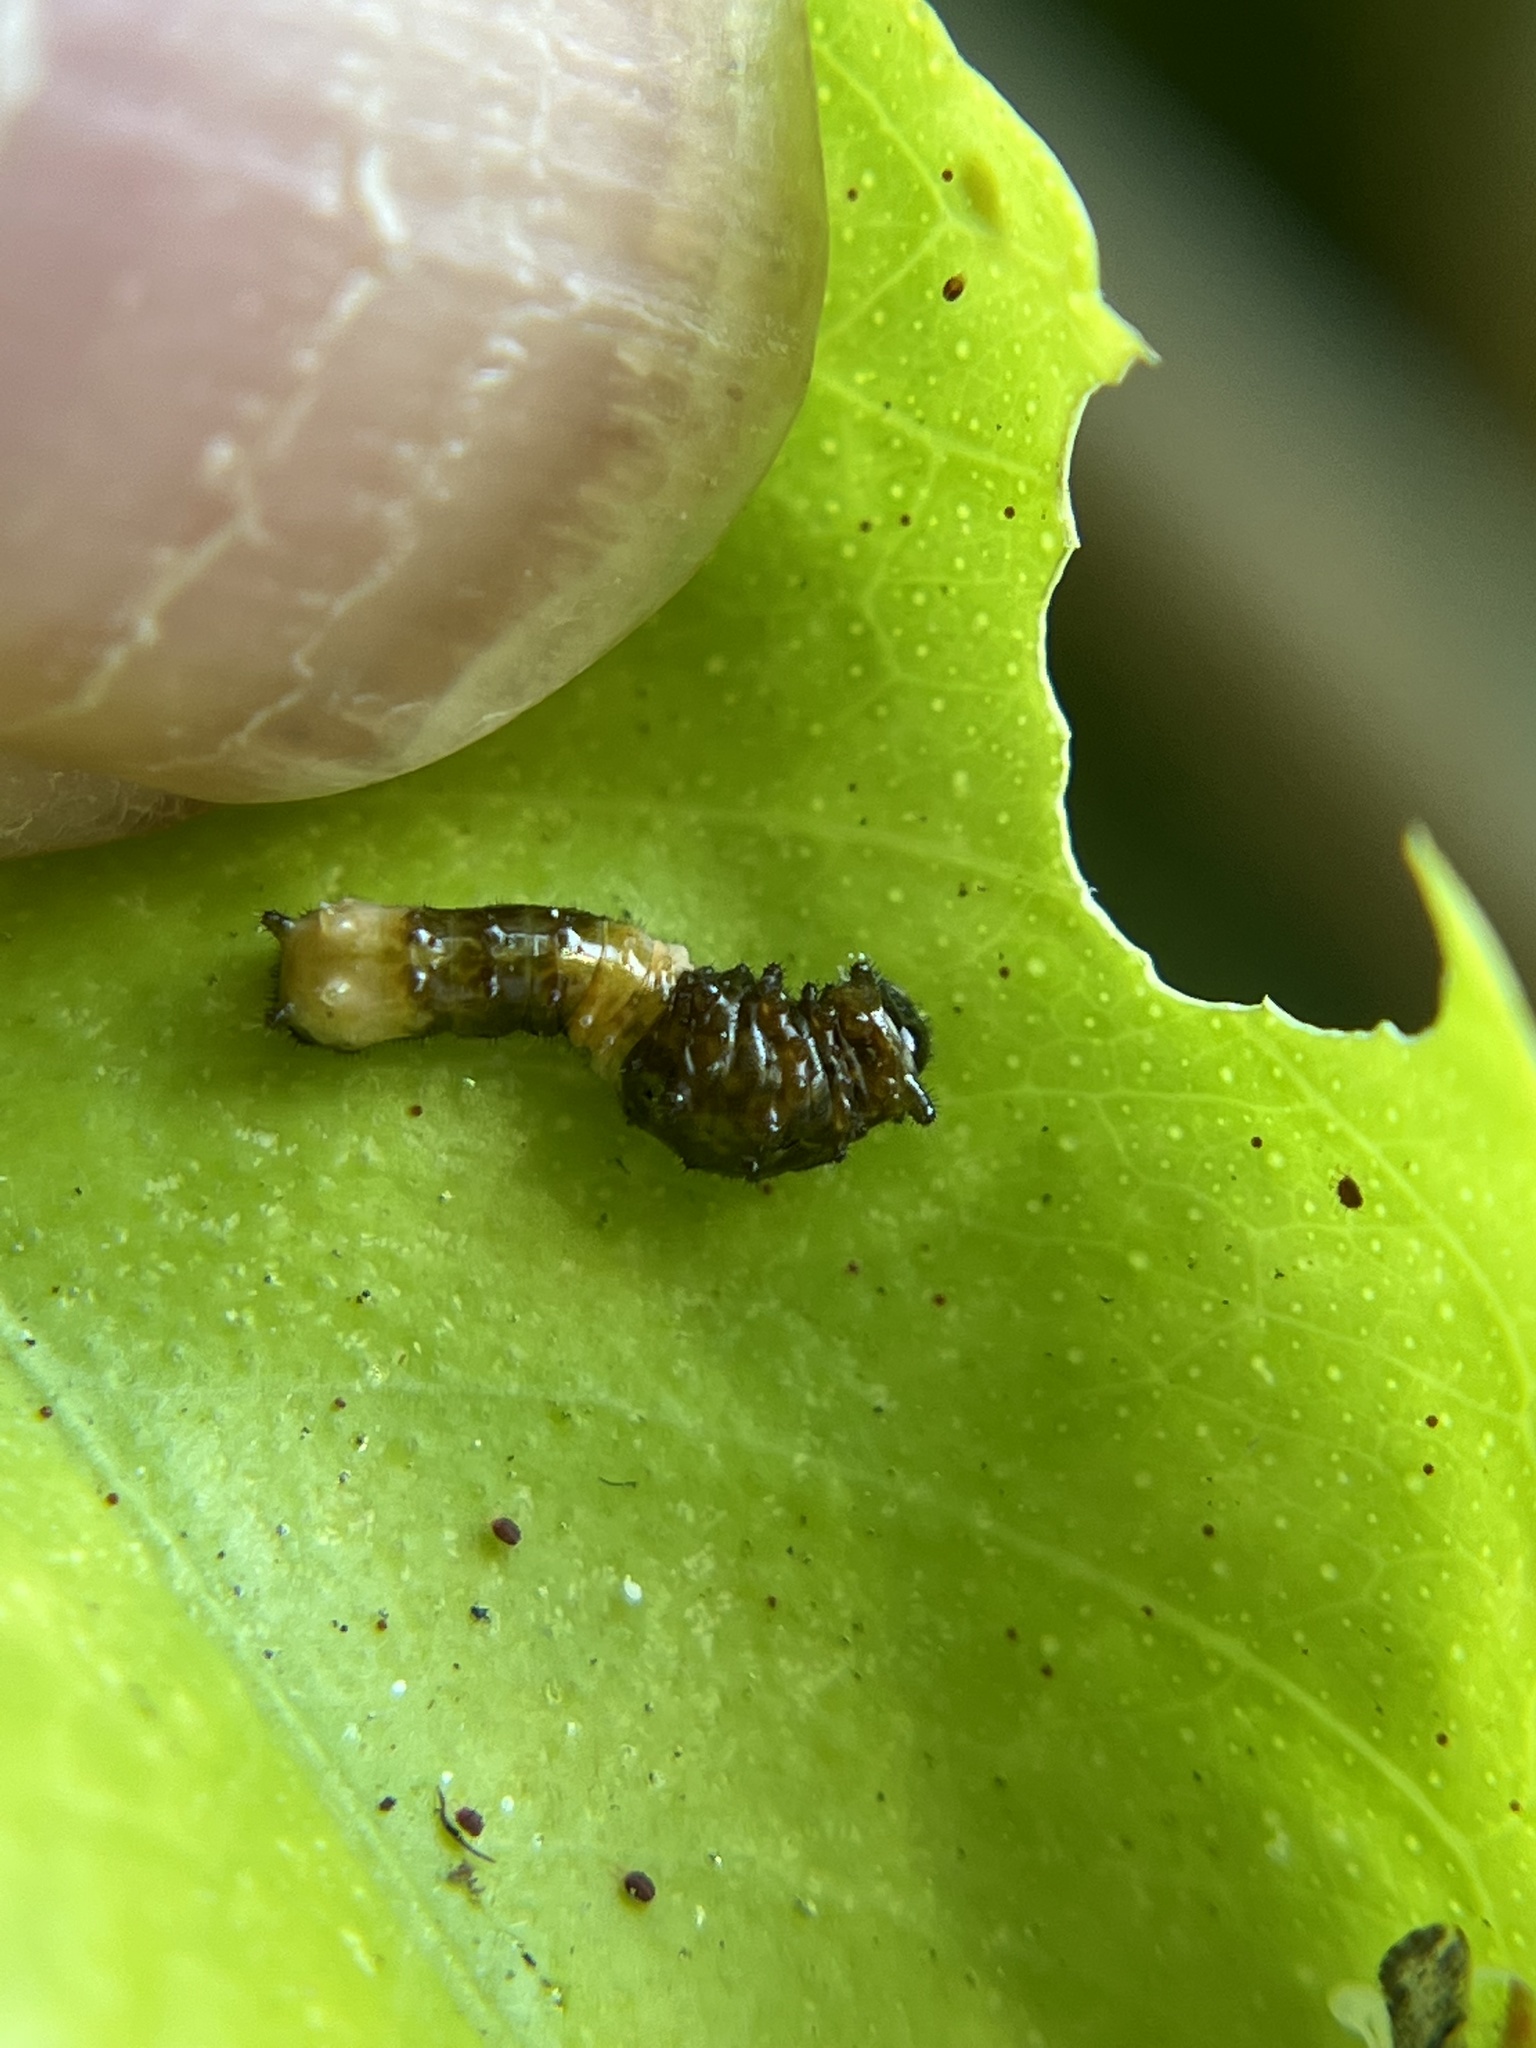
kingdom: Animalia
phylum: Arthropoda
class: Insecta
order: Lepidoptera
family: Papilionidae
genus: Papilio
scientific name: Papilio cresphontes
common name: Giant swallowtail
